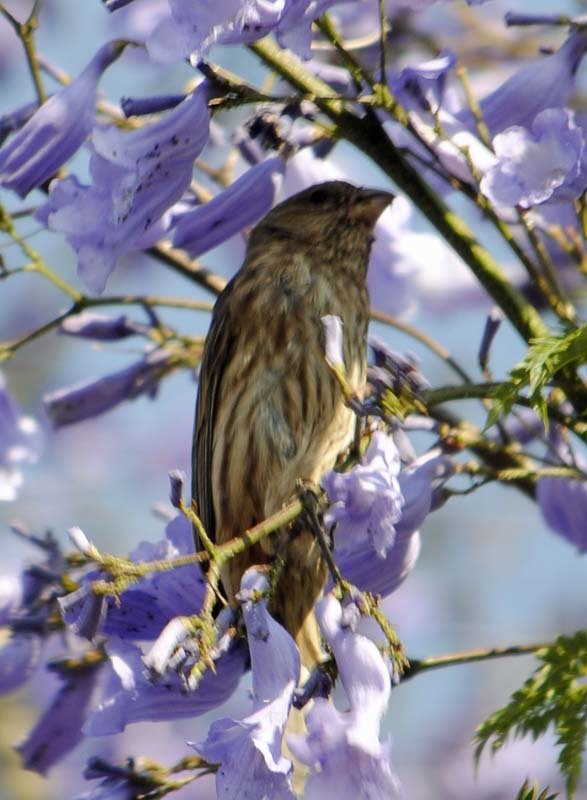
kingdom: Animalia
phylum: Chordata
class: Aves
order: Passeriformes
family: Fringillidae
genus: Haemorhous
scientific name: Haemorhous mexicanus
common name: House finch
